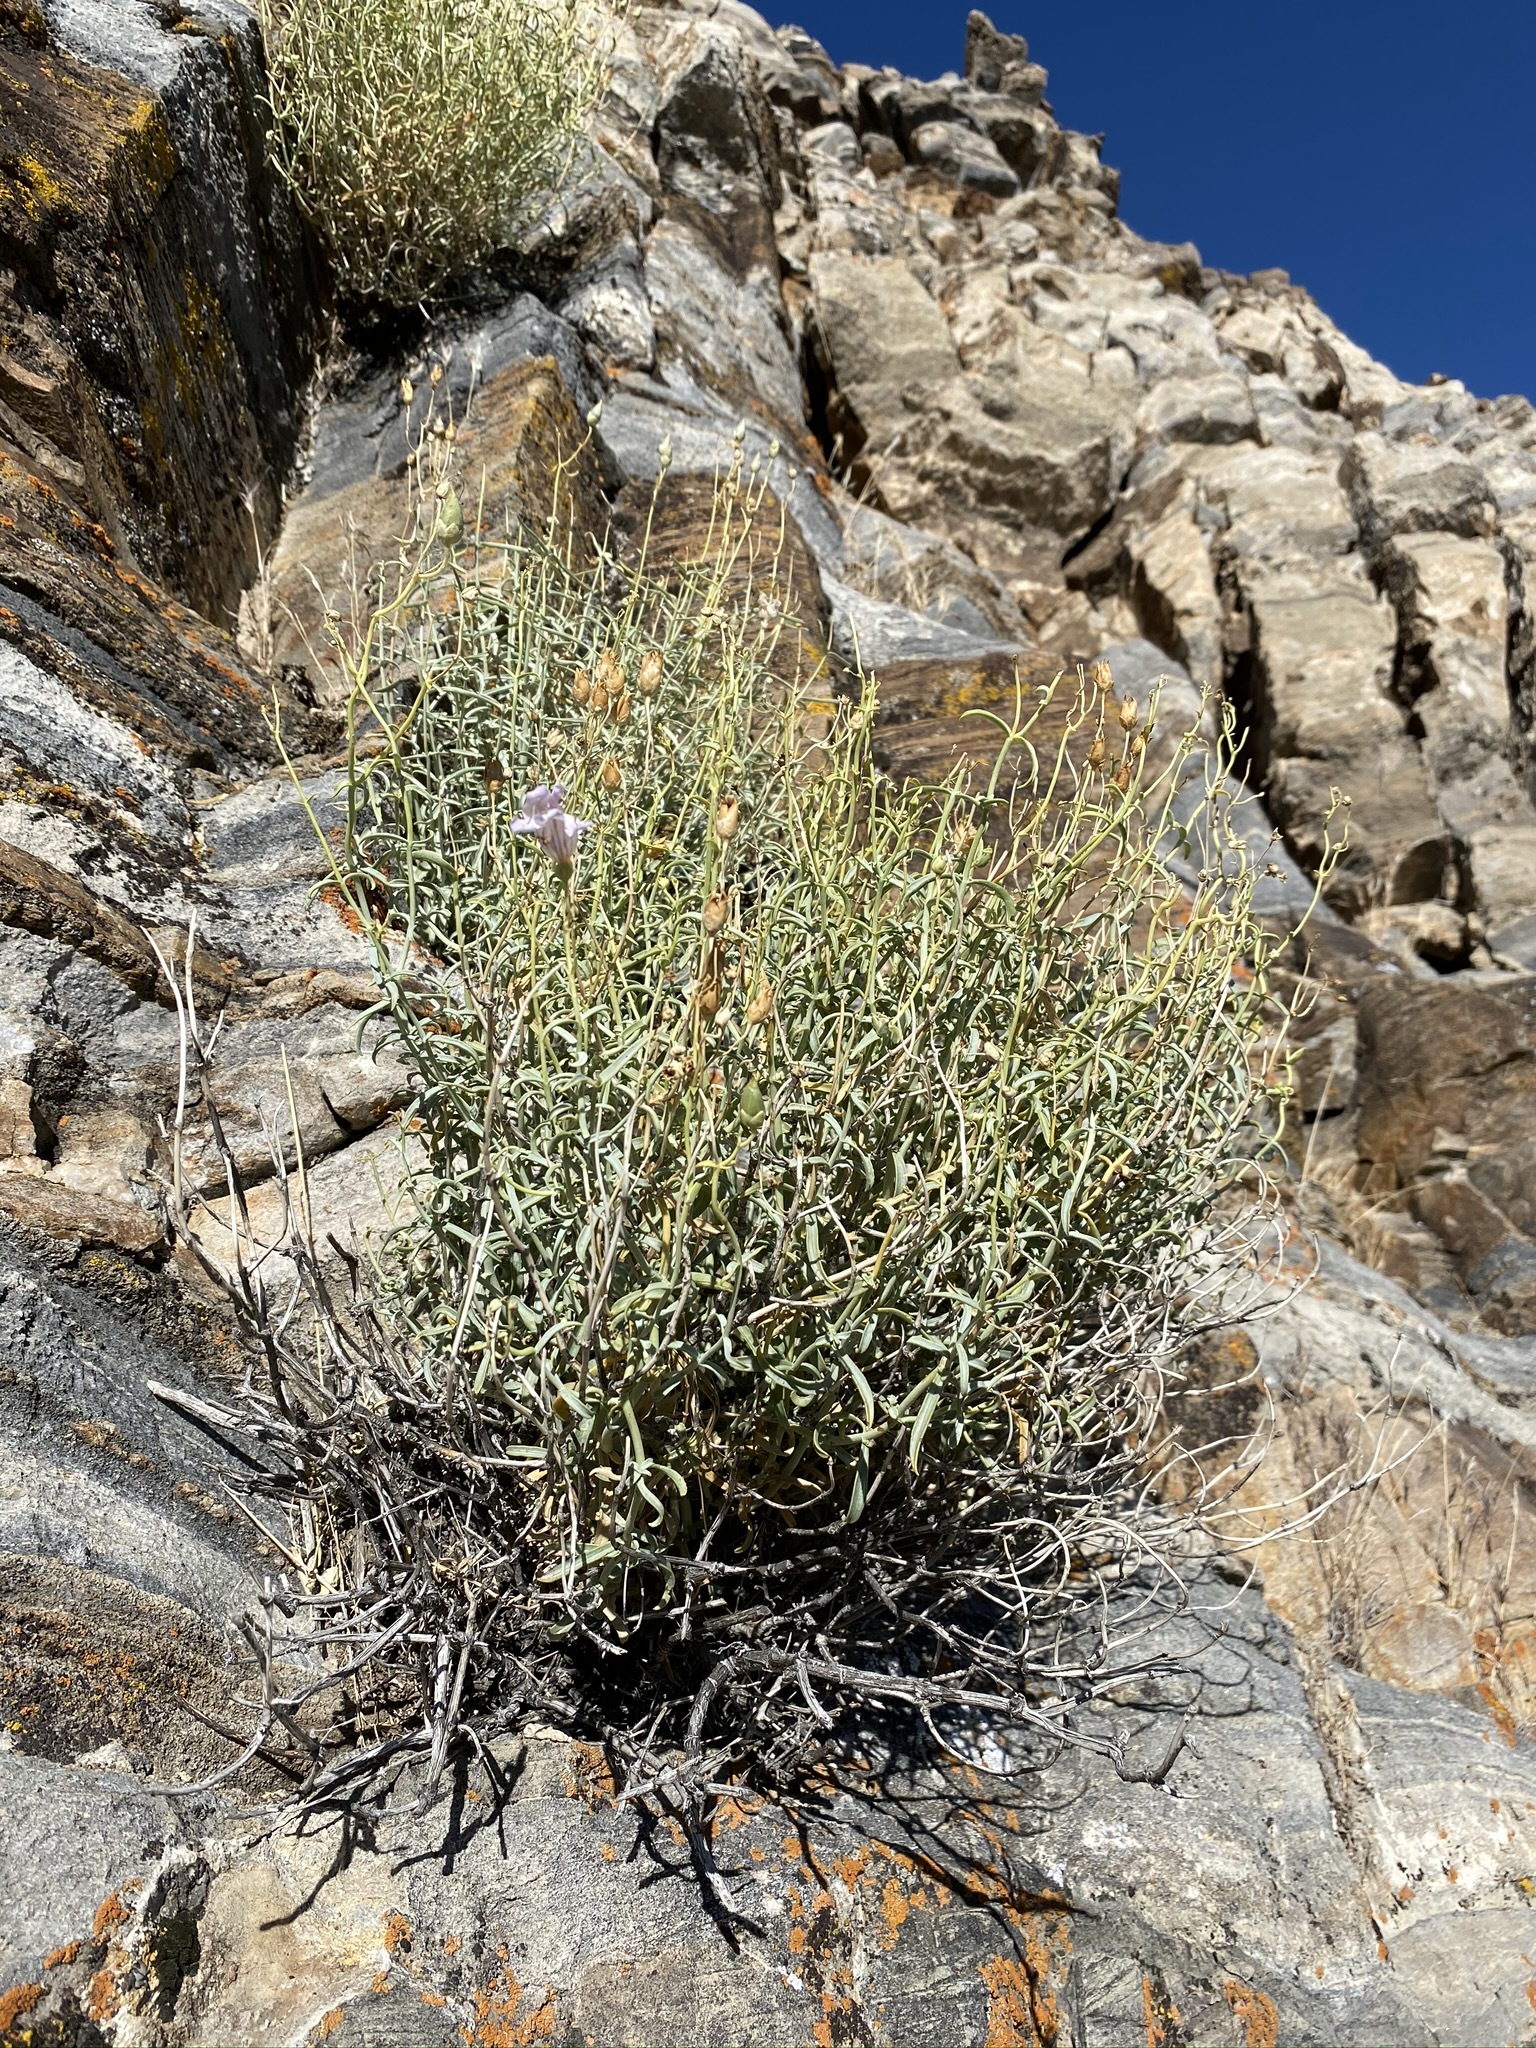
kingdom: Plantae
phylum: Tracheophyta
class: Magnoliopsida
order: Lamiales
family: Plantaginaceae
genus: Penstemon
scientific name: Penstemon fruticiformis
